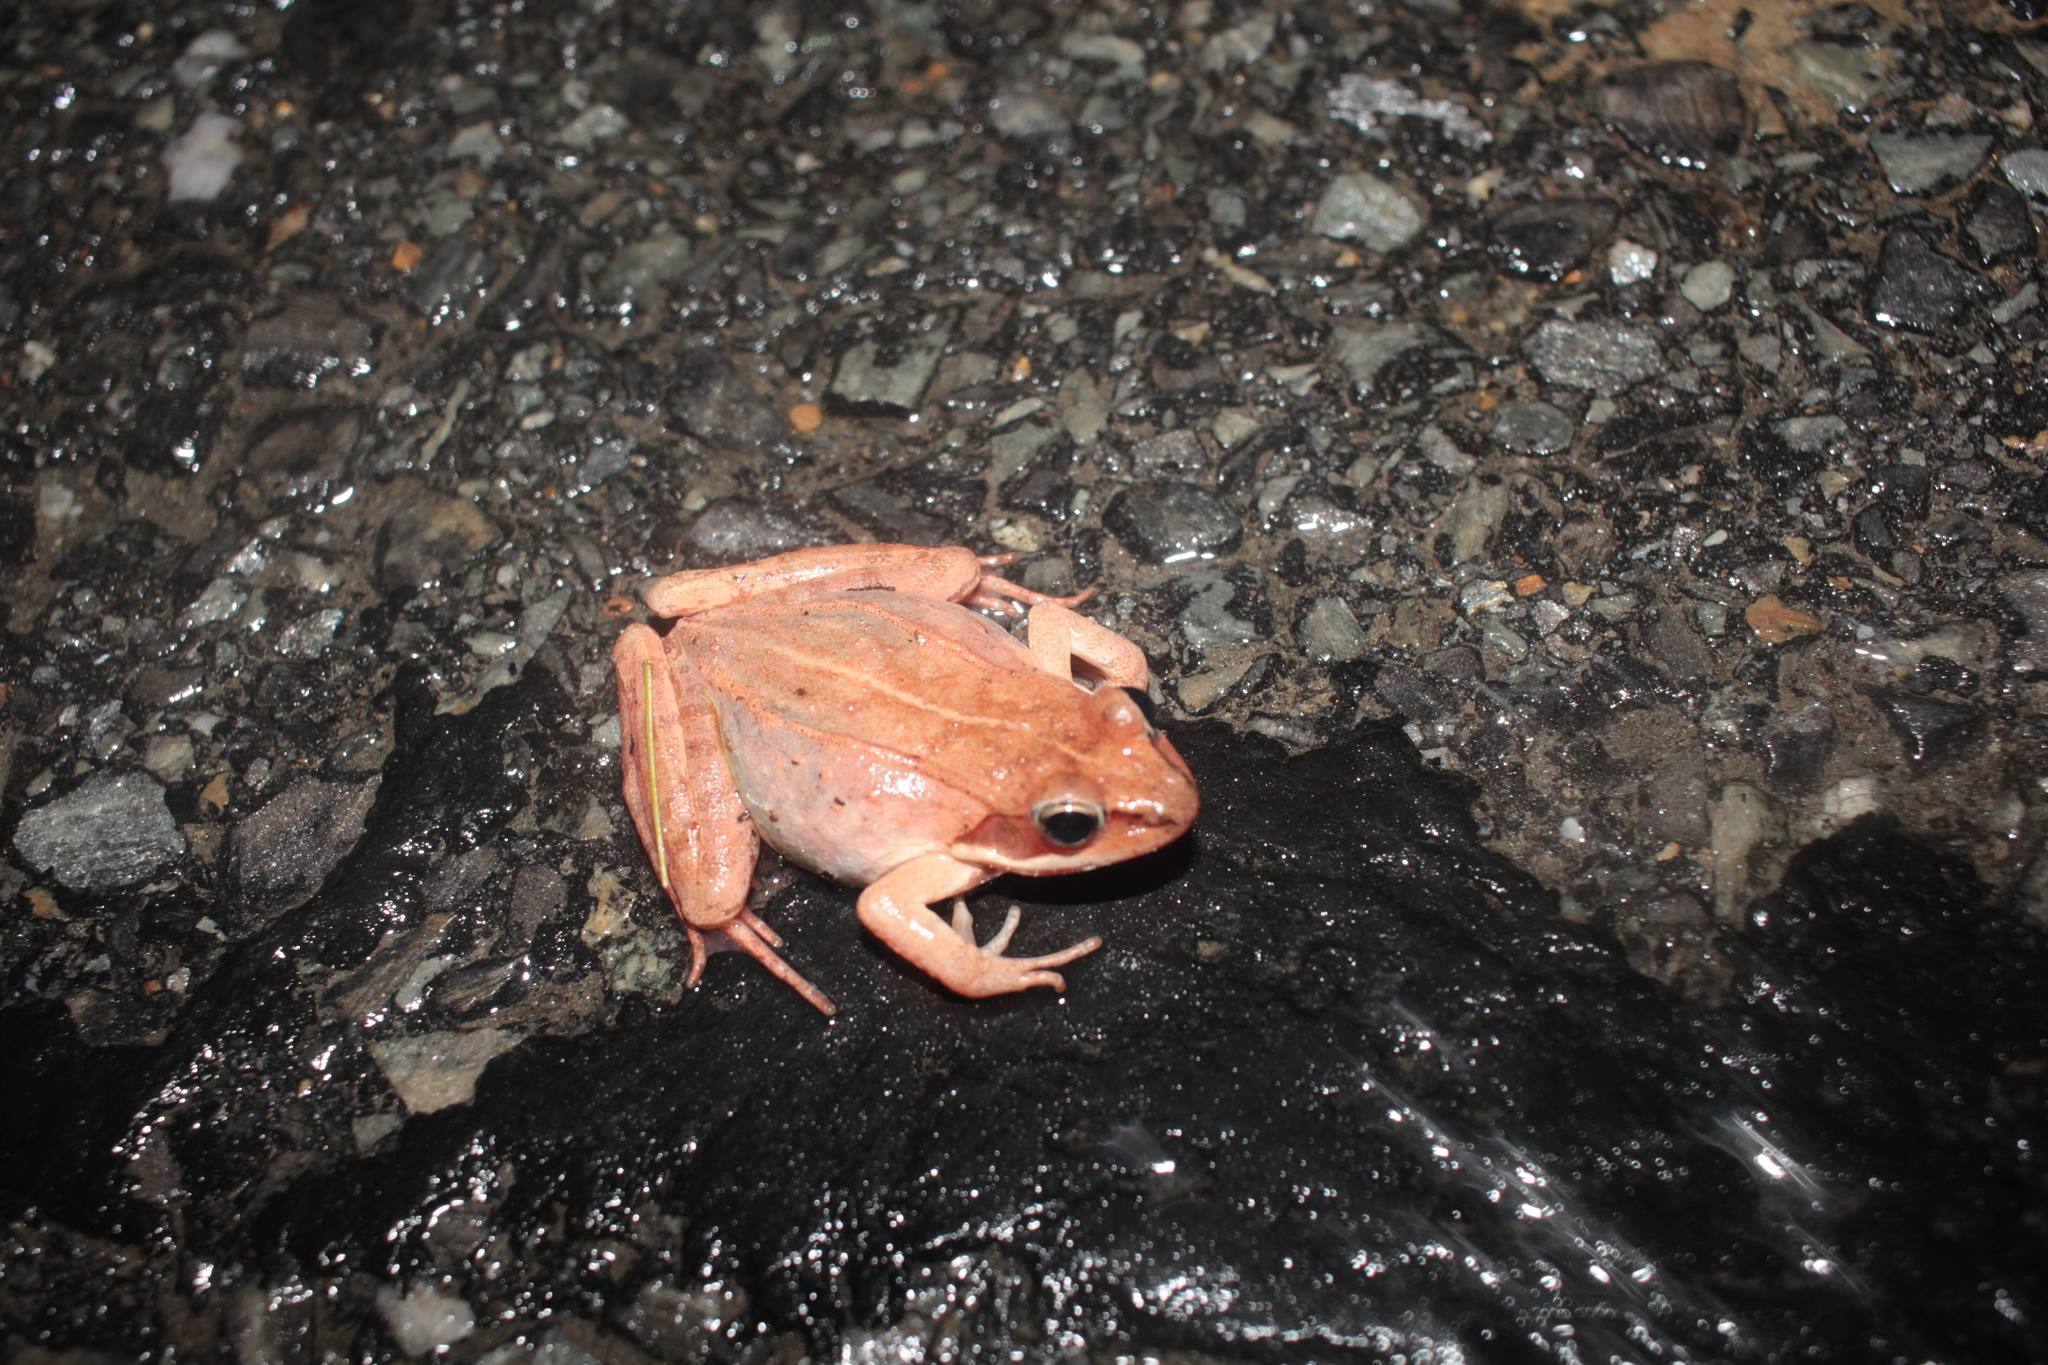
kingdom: Animalia
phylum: Chordata
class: Amphibia
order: Anura
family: Ranidae
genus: Lithobates
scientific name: Lithobates sylvaticus
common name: Wood frog
